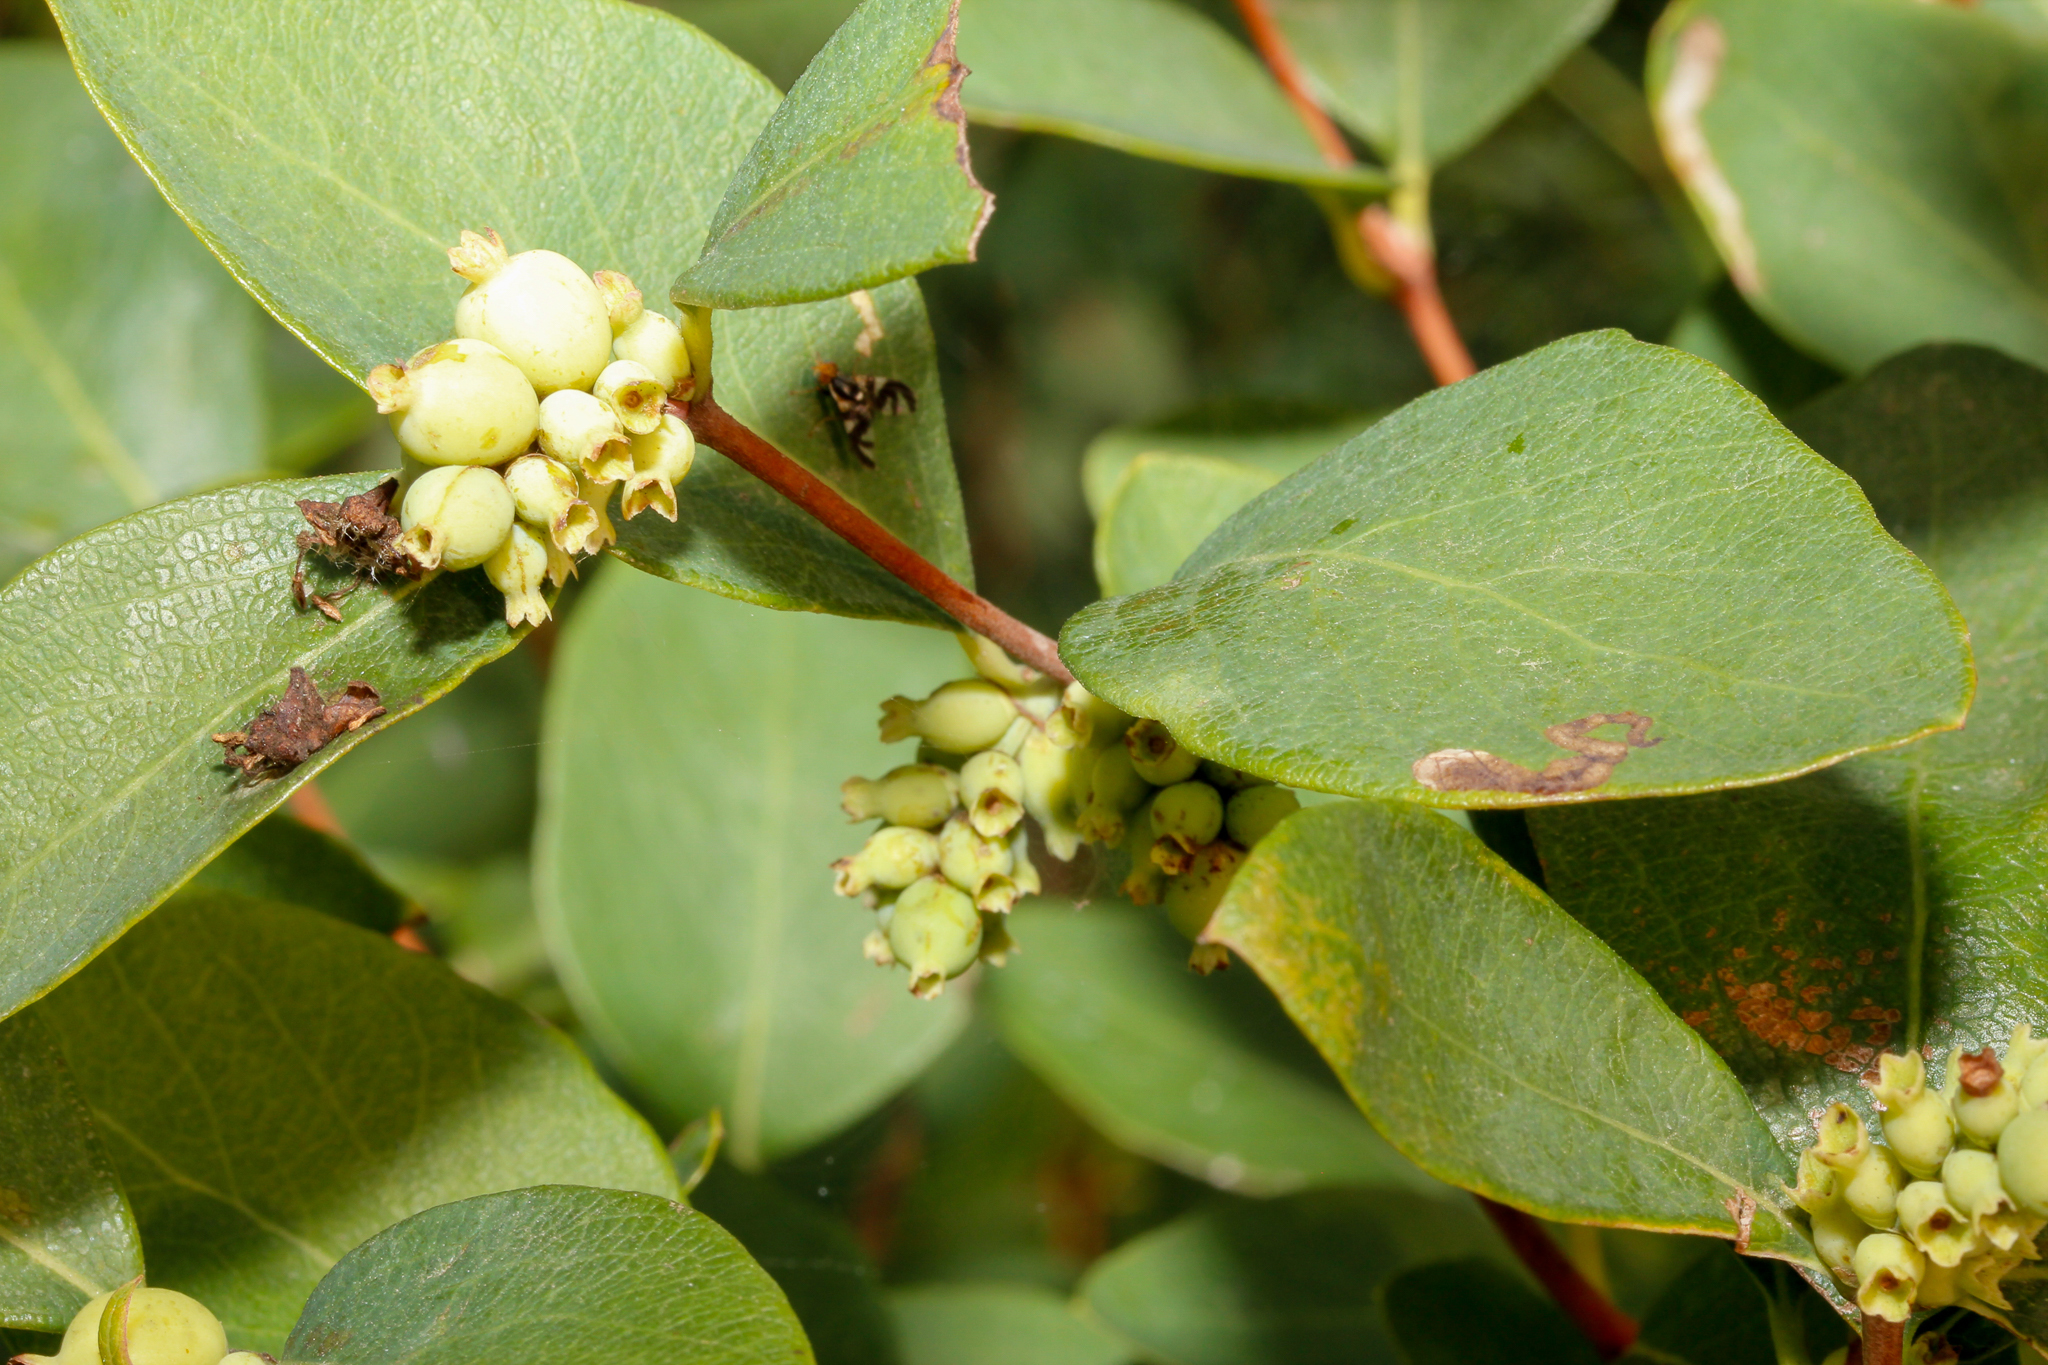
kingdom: Plantae
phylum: Tracheophyta
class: Magnoliopsida
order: Dipsacales
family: Caprifoliaceae
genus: Symphoricarpos
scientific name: Symphoricarpos occidentalis
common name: Wolfberry
